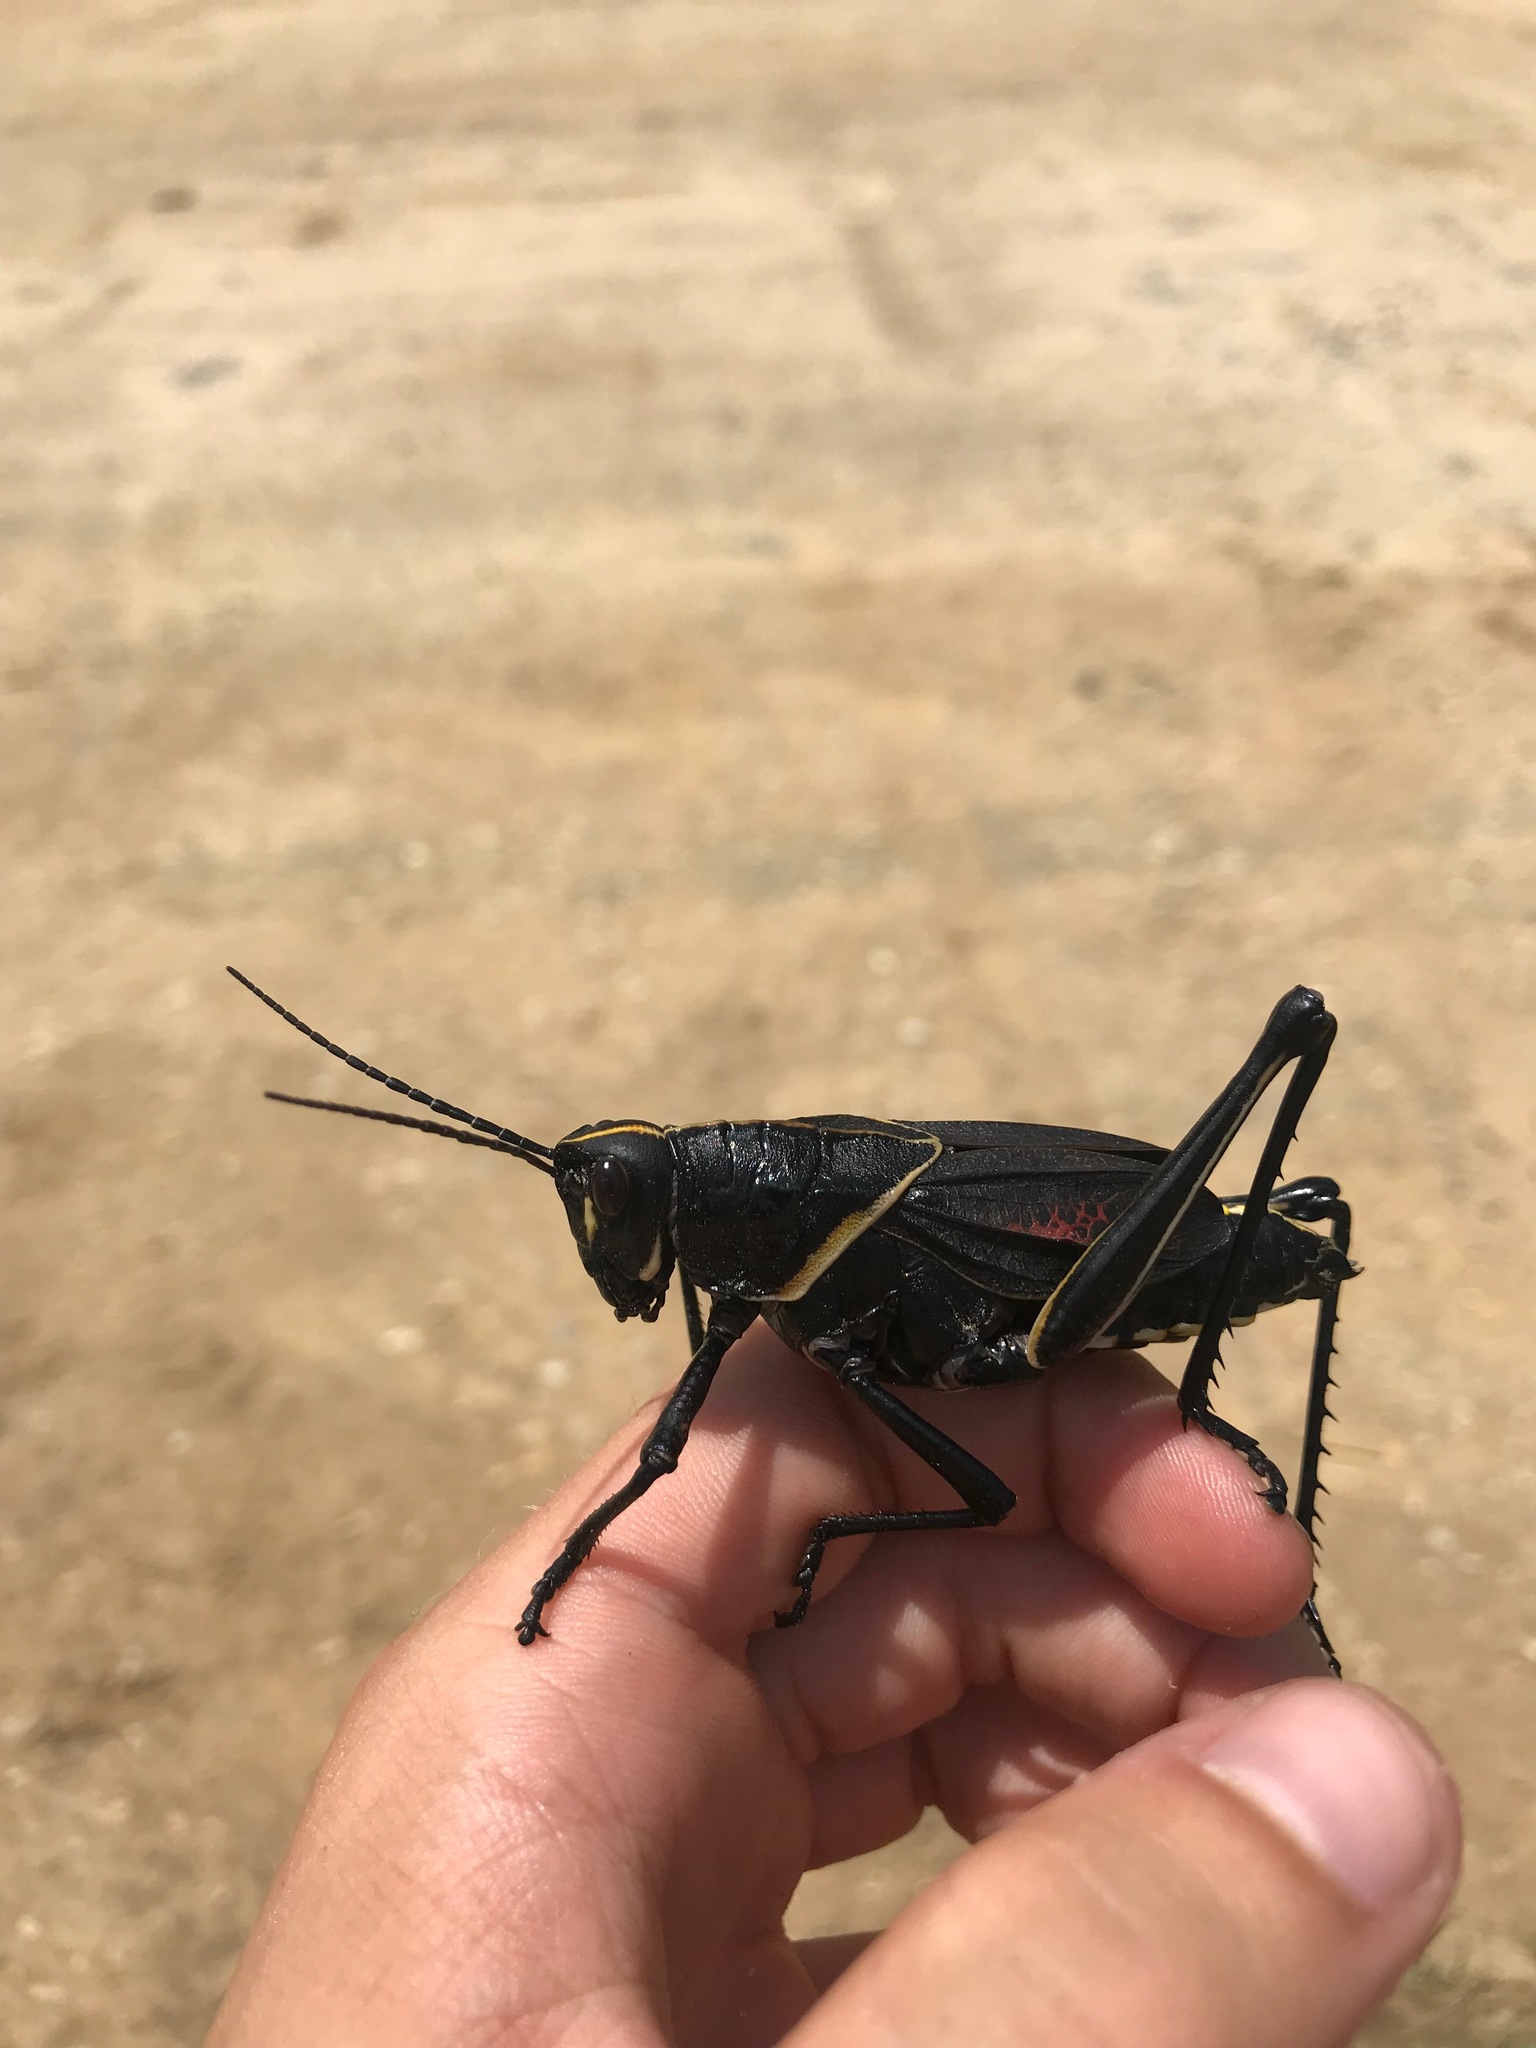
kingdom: Animalia
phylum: Arthropoda
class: Insecta
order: Orthoptera
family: Romaleidae
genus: Romalea
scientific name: Romalea microptera
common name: Eastern lubber grasshopper
